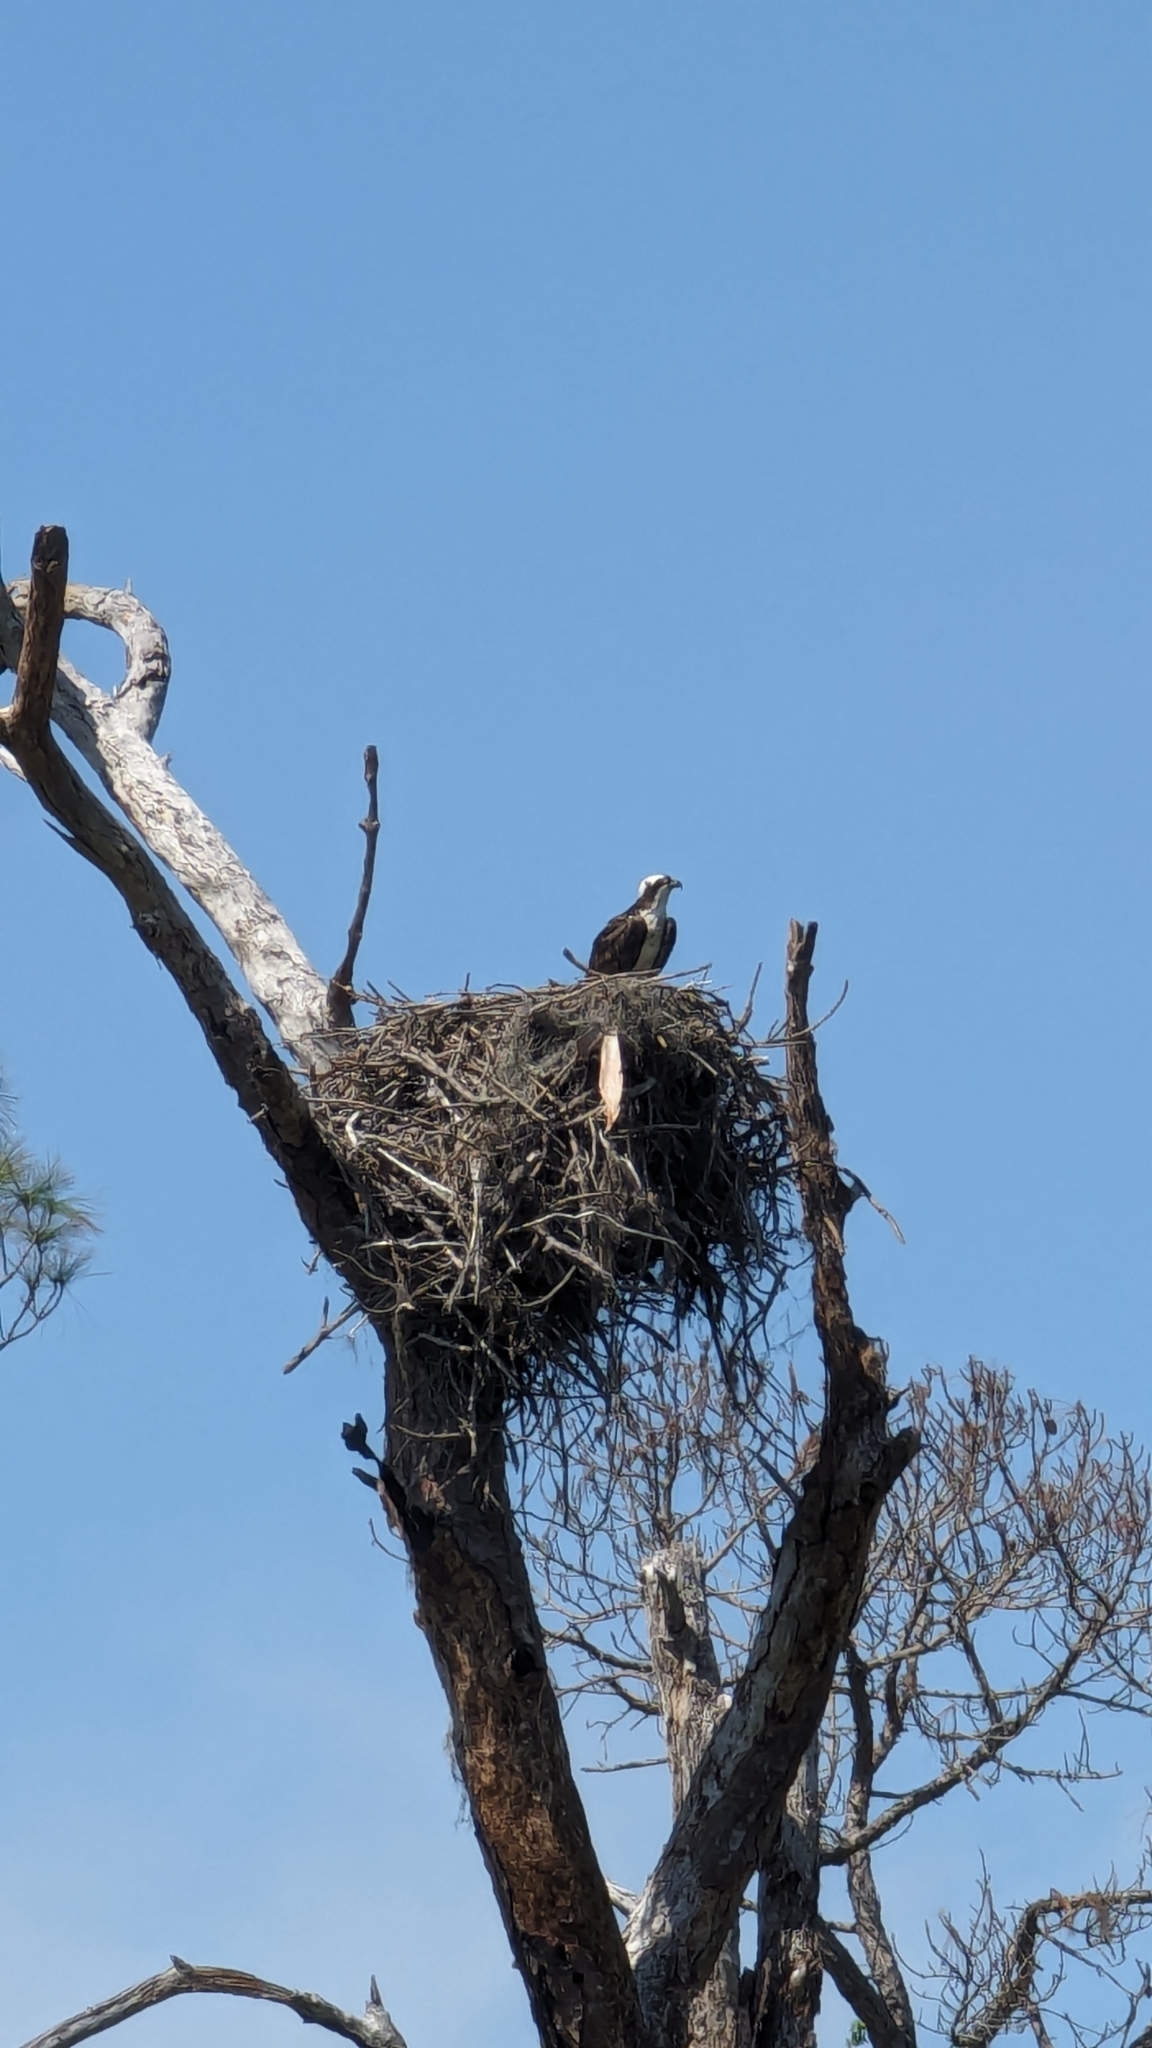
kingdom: Animalia
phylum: Chordata
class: Aves
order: Accipitriformes
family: Pandionidae
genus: Pandion
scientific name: Pandion haliaetus
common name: Osprey
